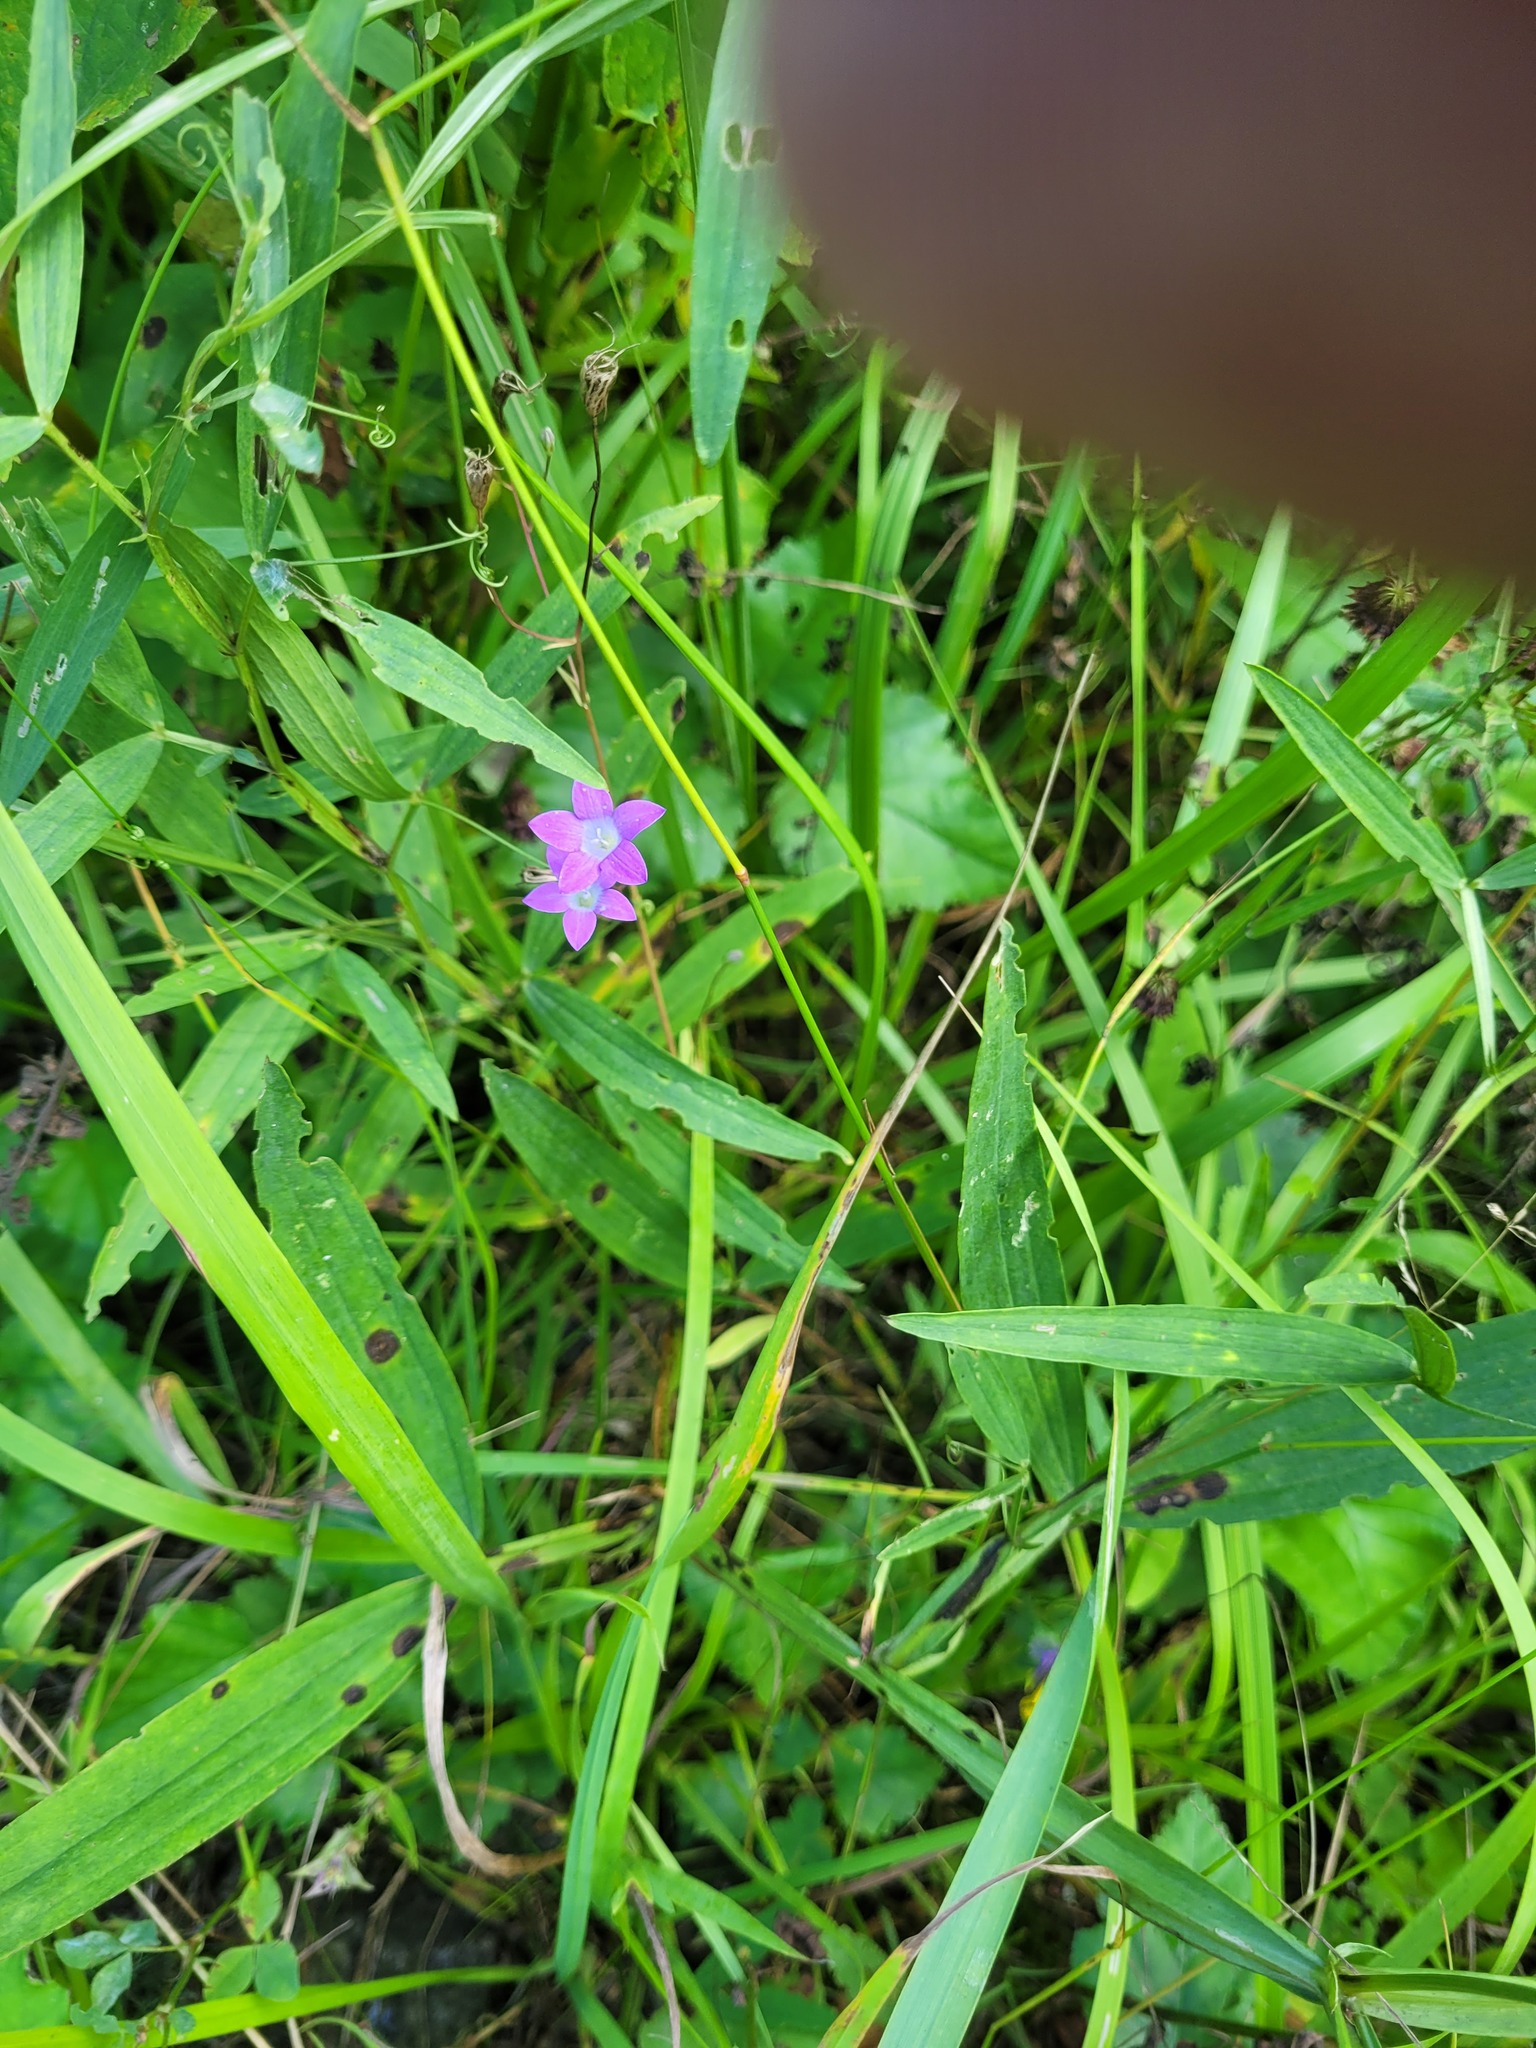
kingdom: Plantae
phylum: Tracheophyta
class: Magnoliopsida
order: Asterales
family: Campanulaceae
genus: Campanula
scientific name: Campanula patula
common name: Spreading bellflower
